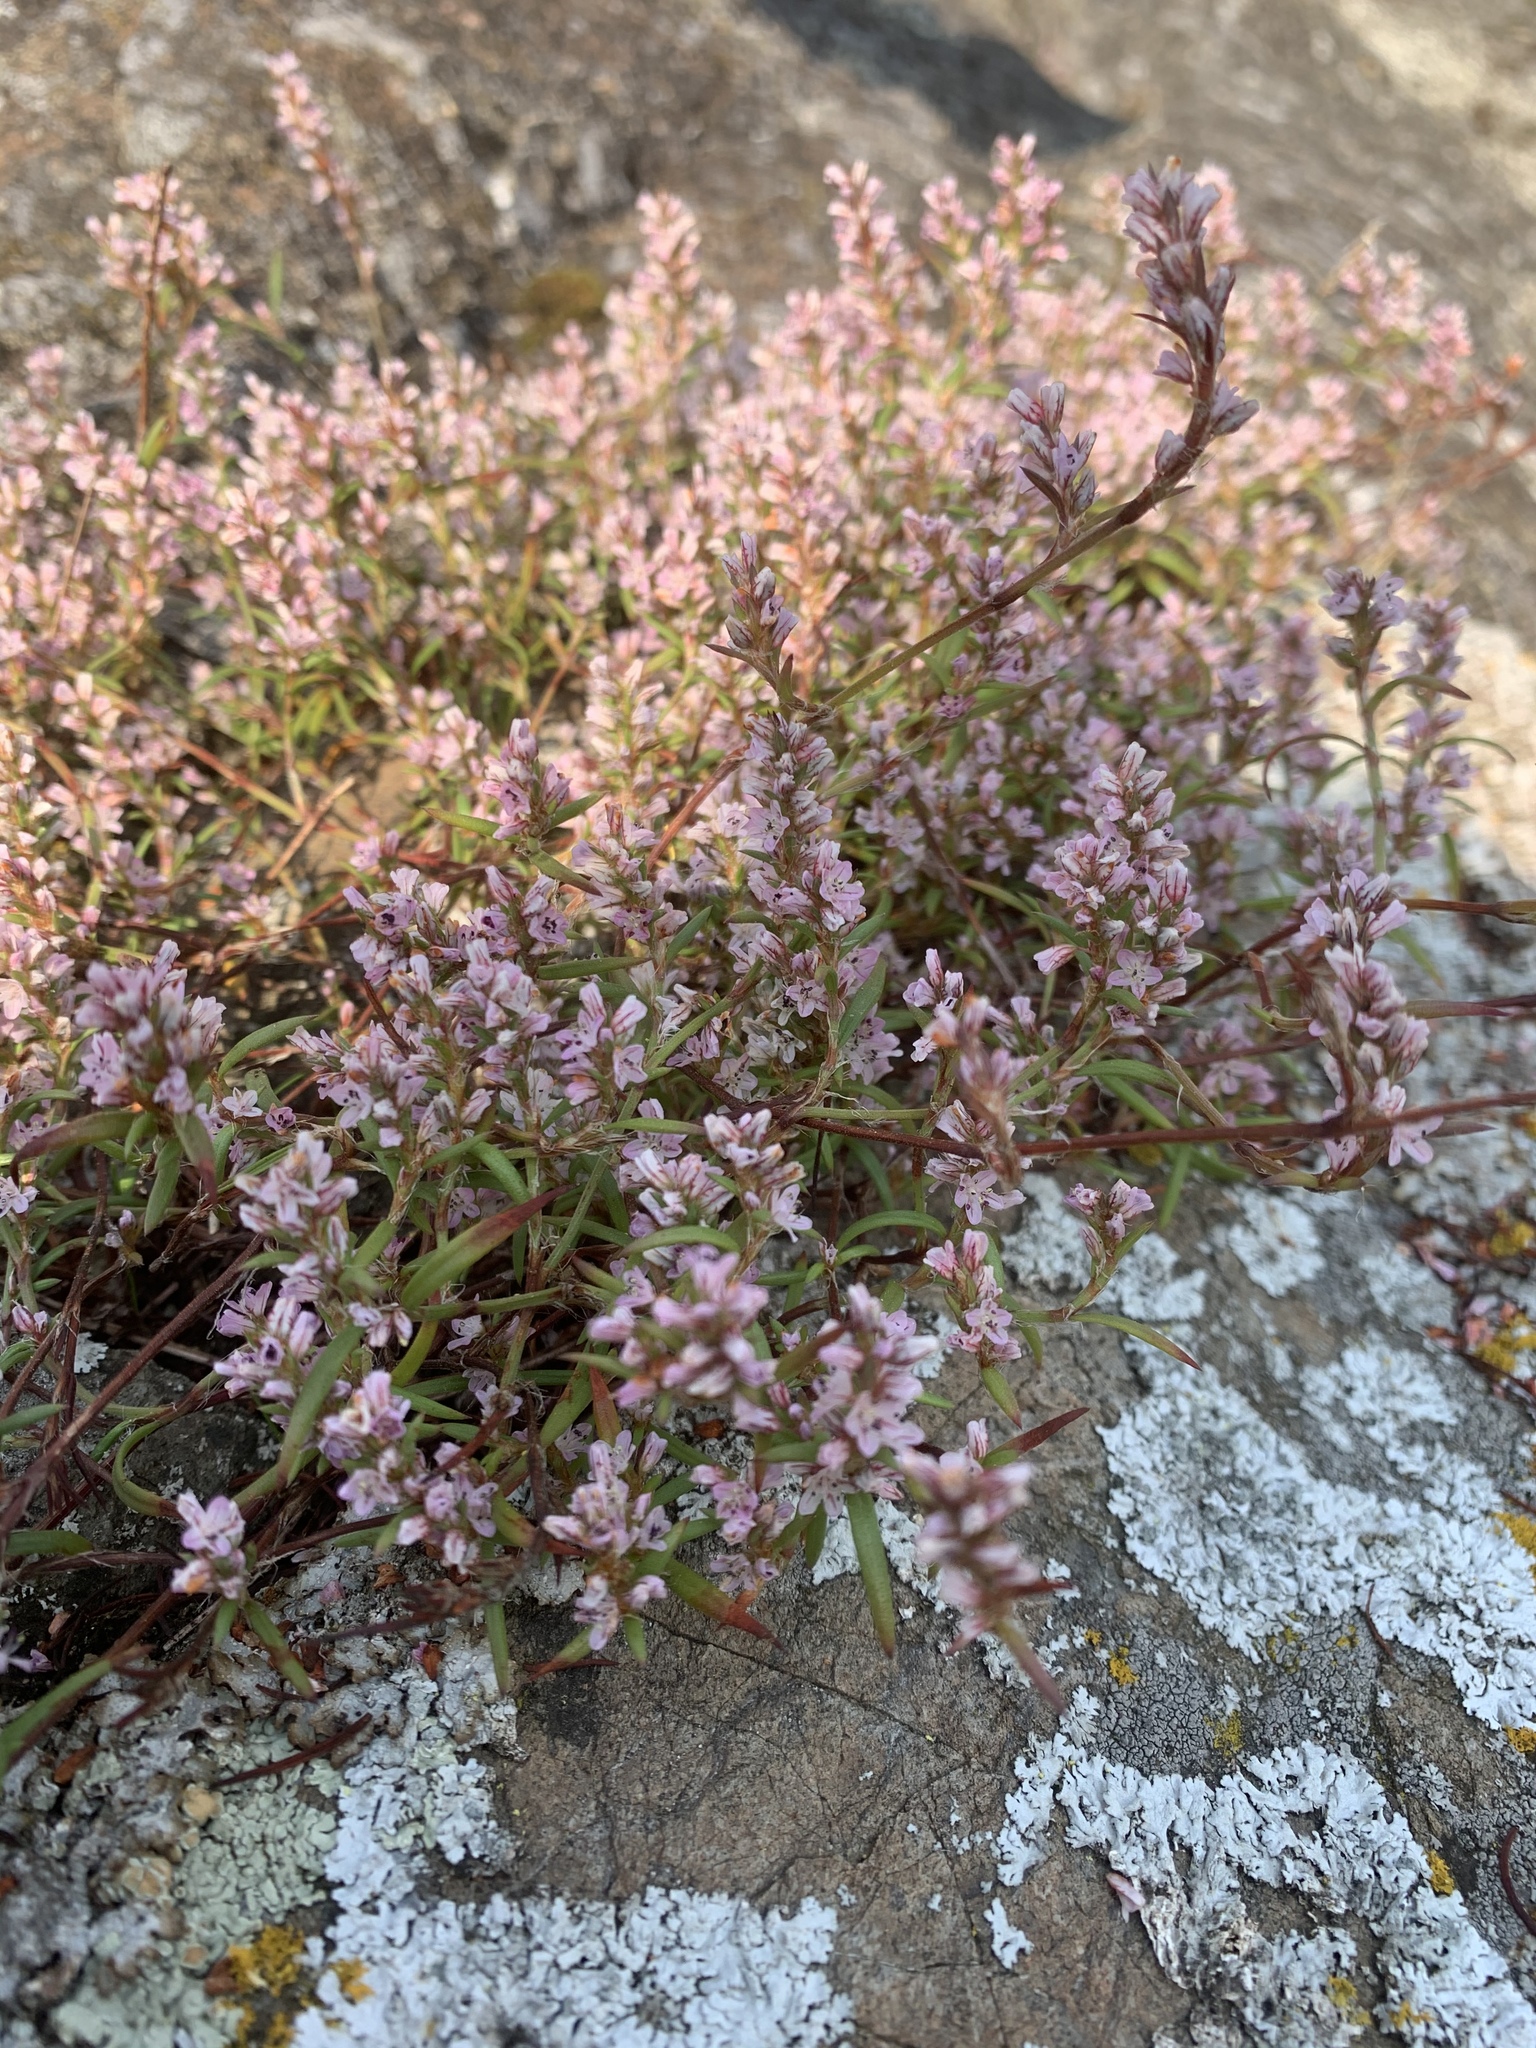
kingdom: Plantae
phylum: Tracheophyta
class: Magnoliopsida
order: Caryophyllales
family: Polygonaceae
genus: Polygonum
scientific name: Polygonum spergulariiforme
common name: Fall knotweed
